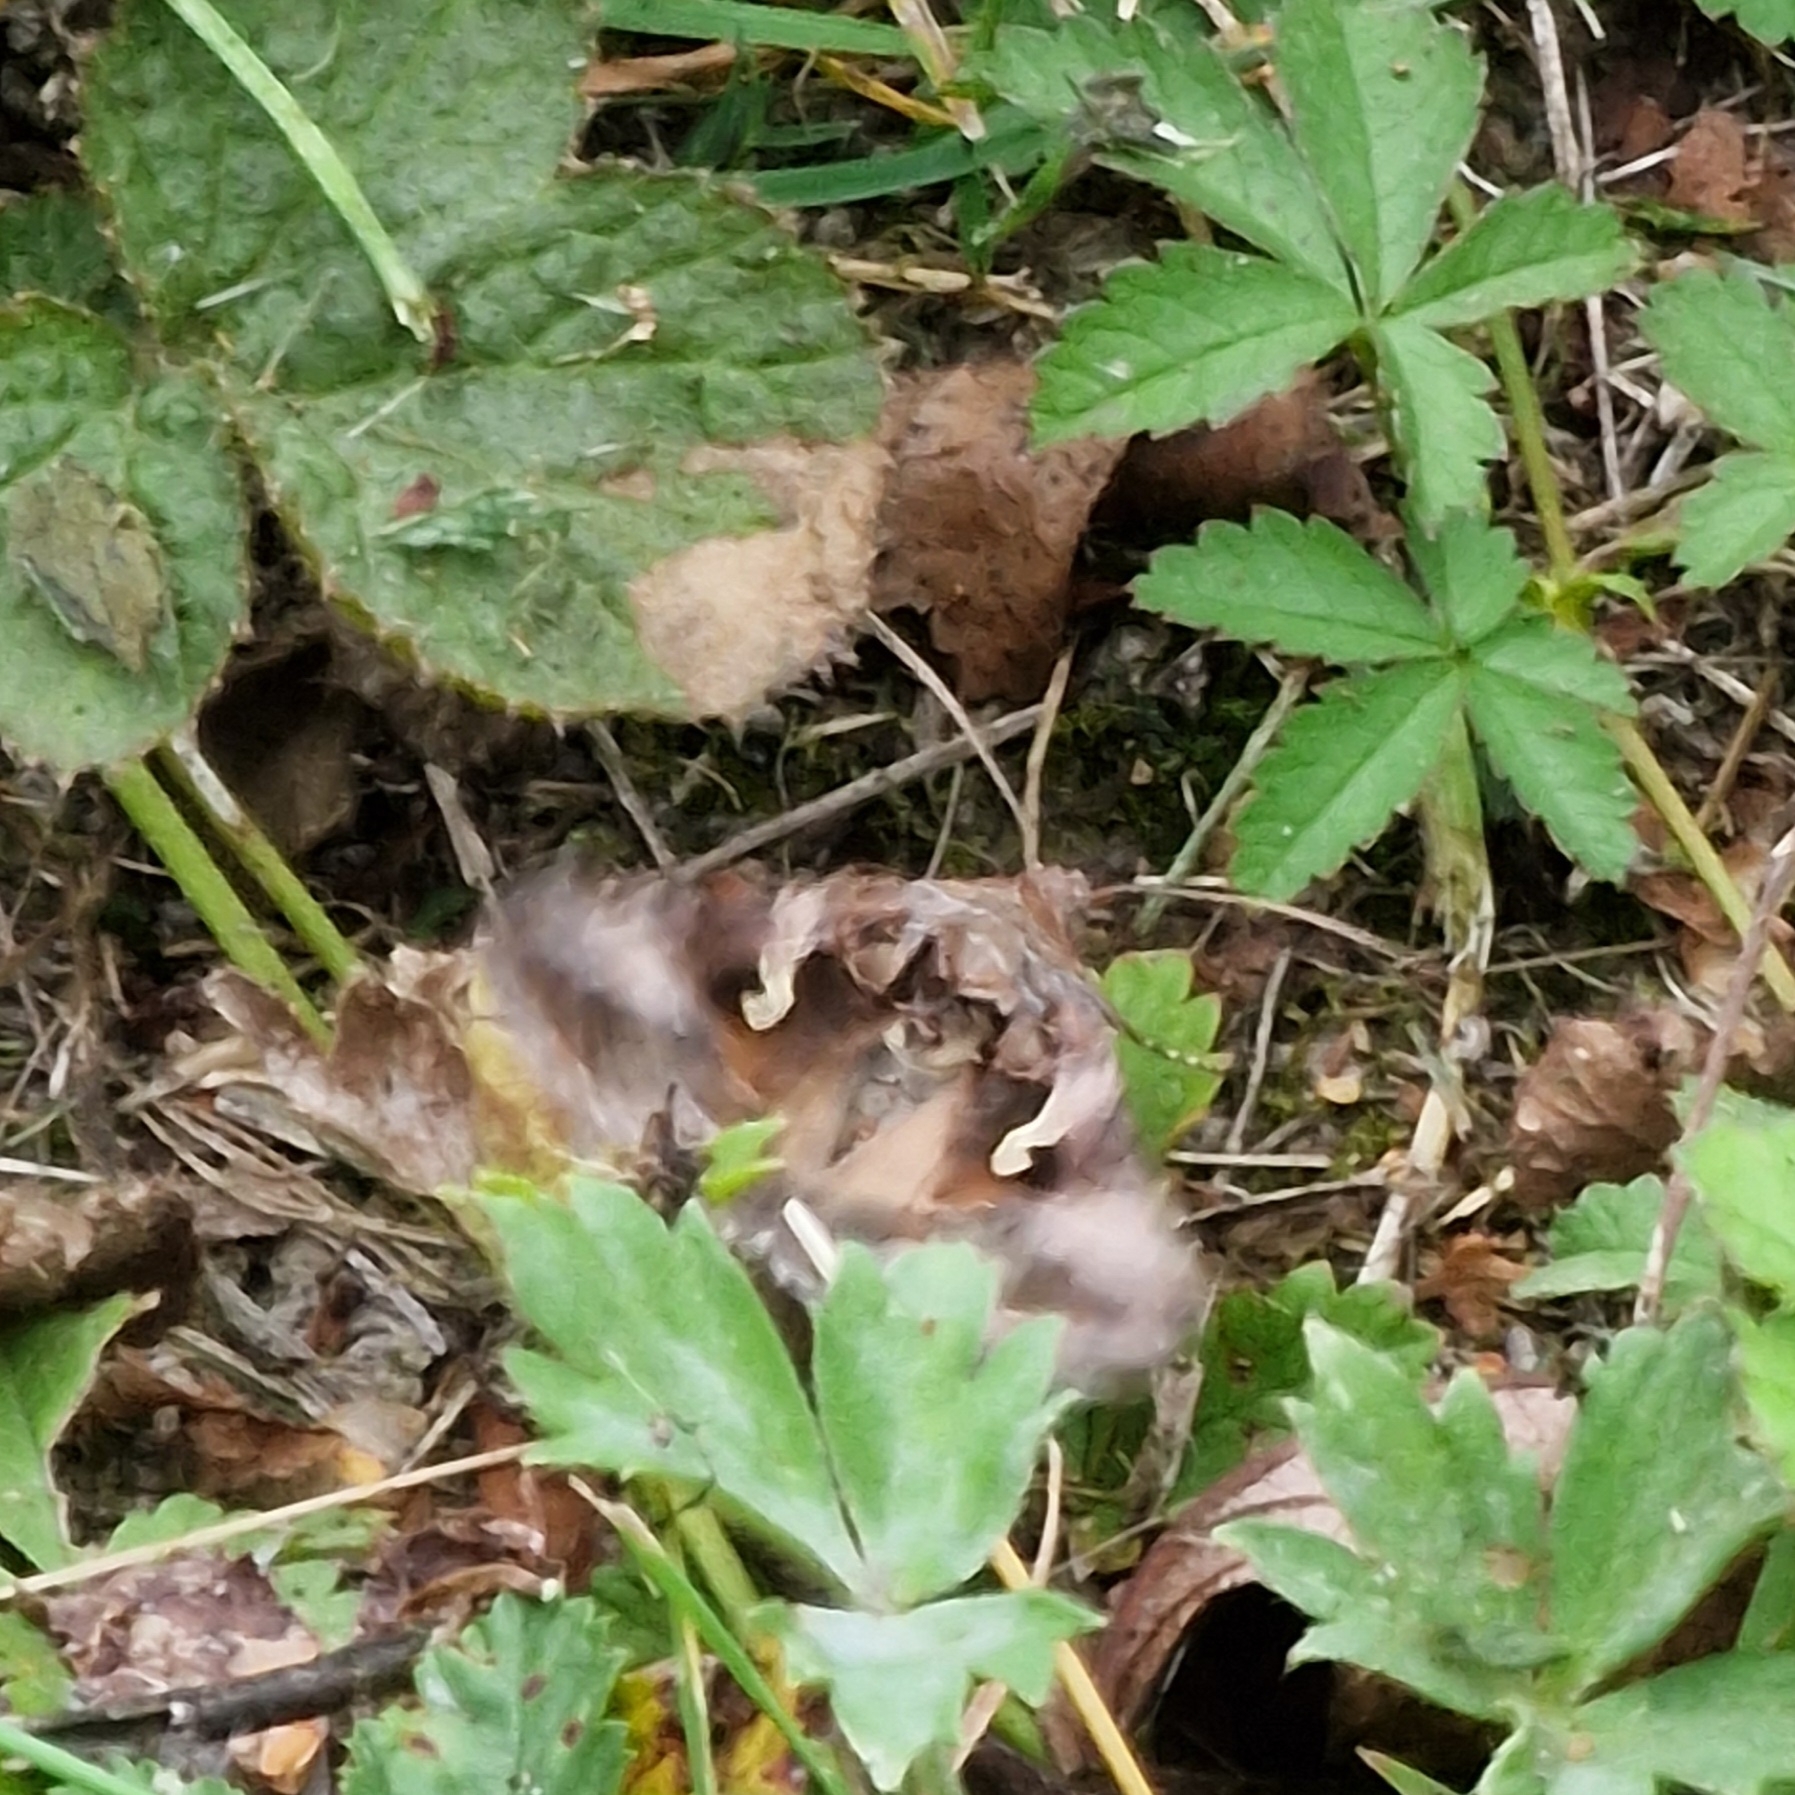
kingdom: Animalia
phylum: Arthropoda
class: Insecta
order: Lepidoptera
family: Noctuidae
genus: Autographa
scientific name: Autographa gamma
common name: Silver y
